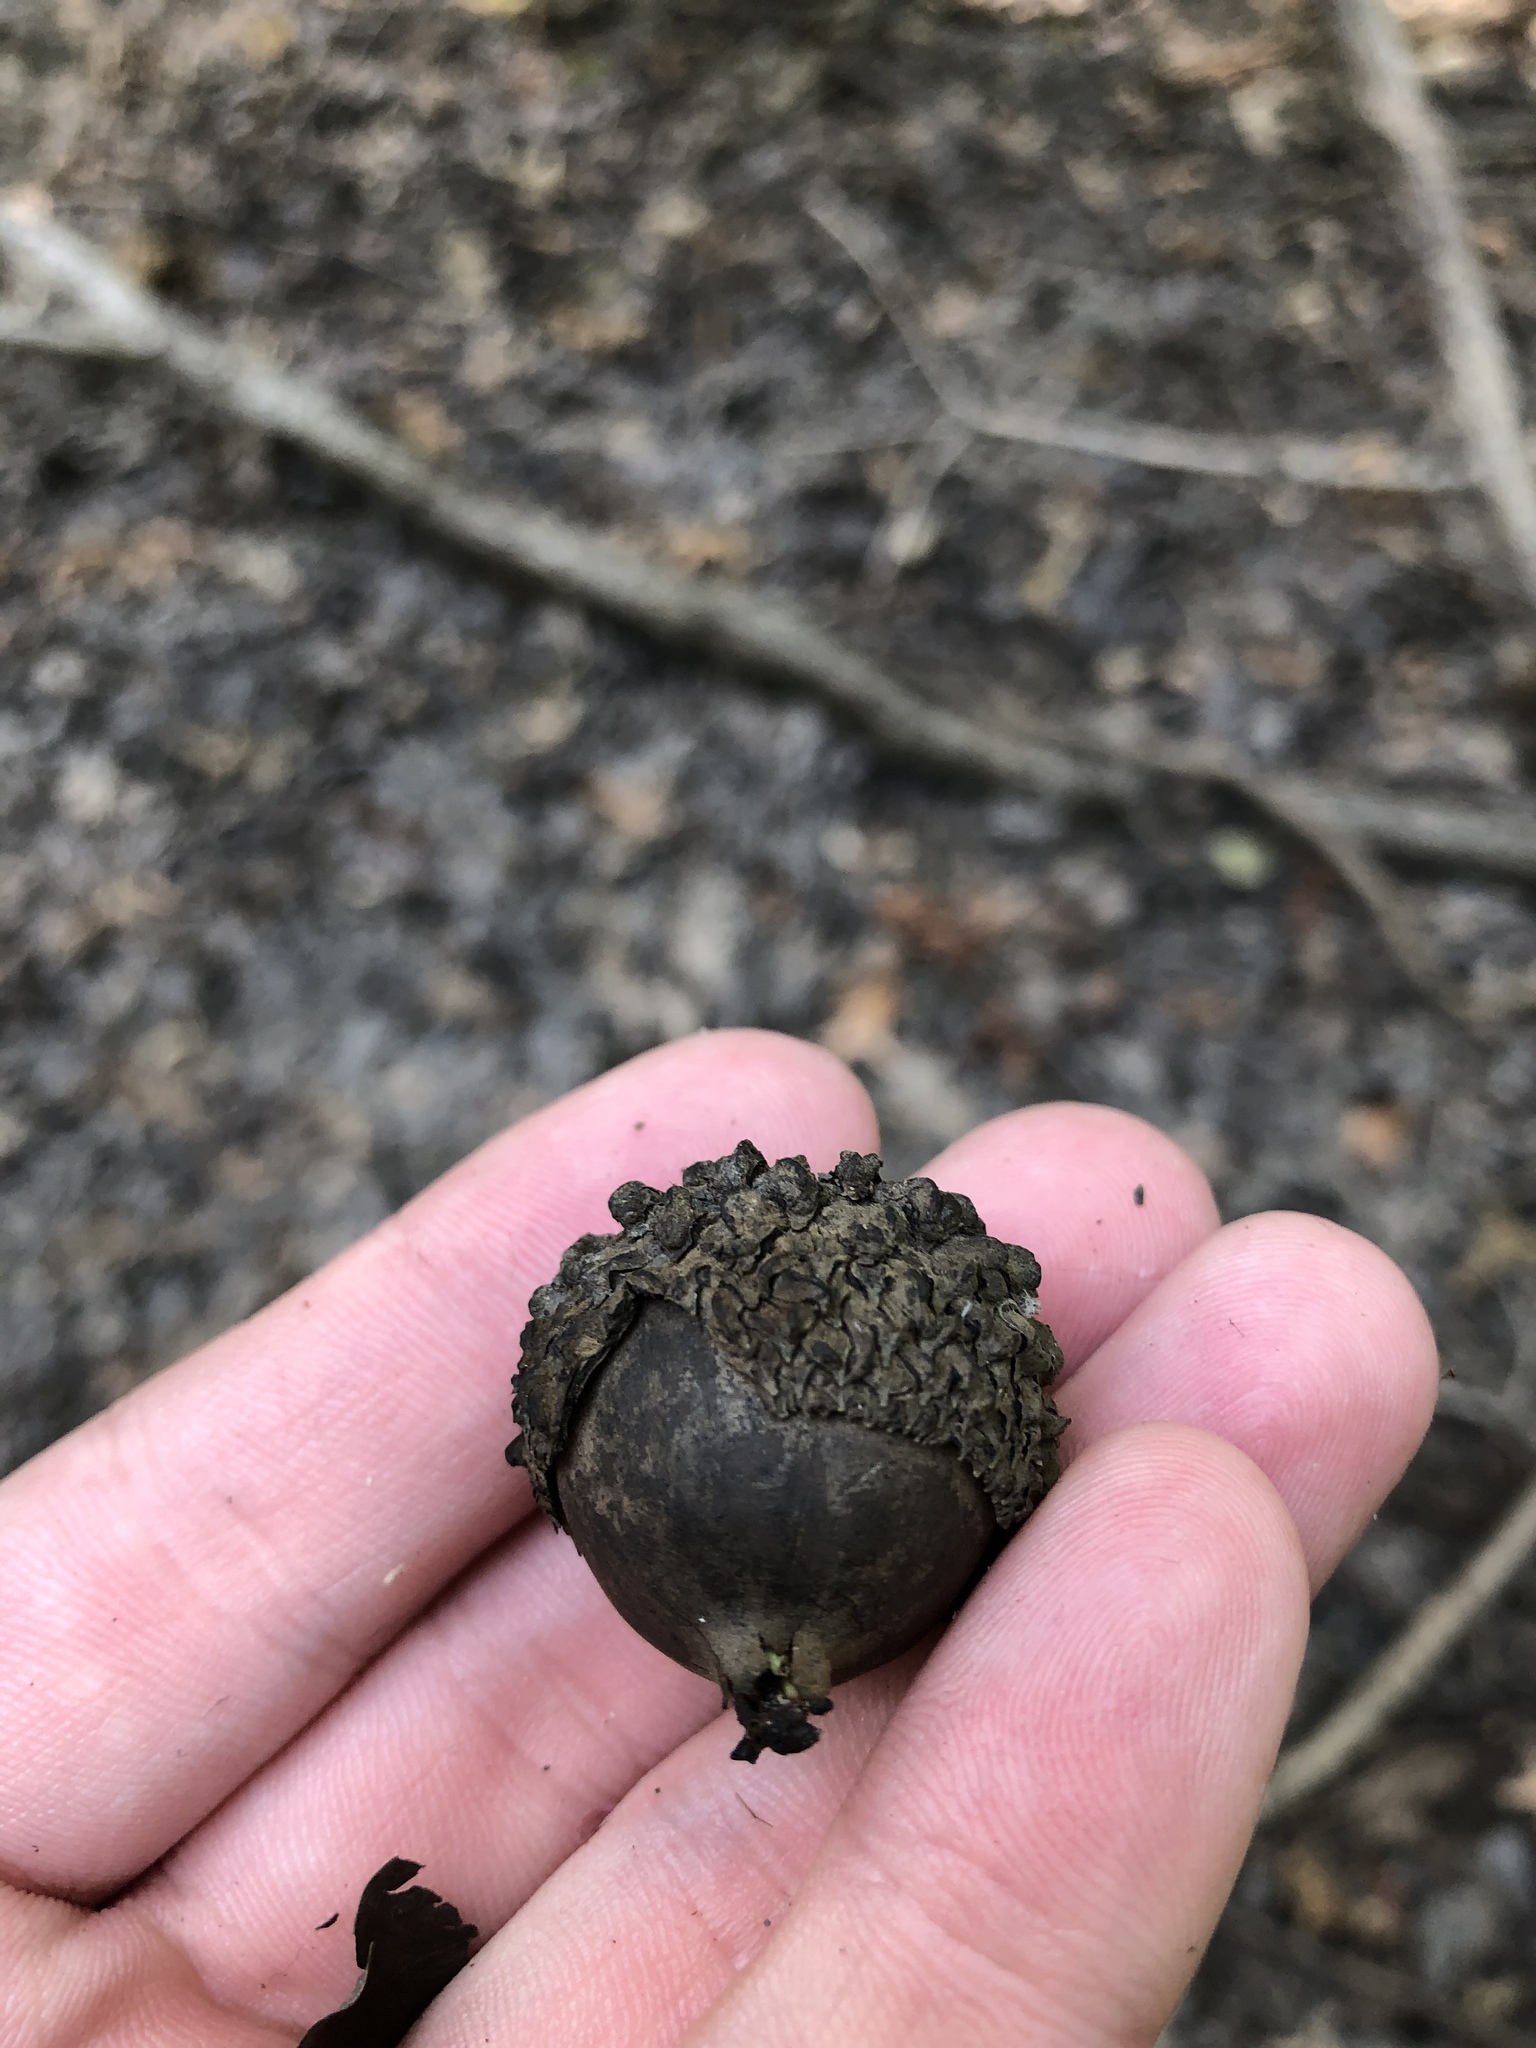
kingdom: Plantae
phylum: Tracheophyta
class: Magnoliopsida
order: Fagales
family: Fagaceae
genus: Quercus
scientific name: Quercus lyrata
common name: Overcup oak
